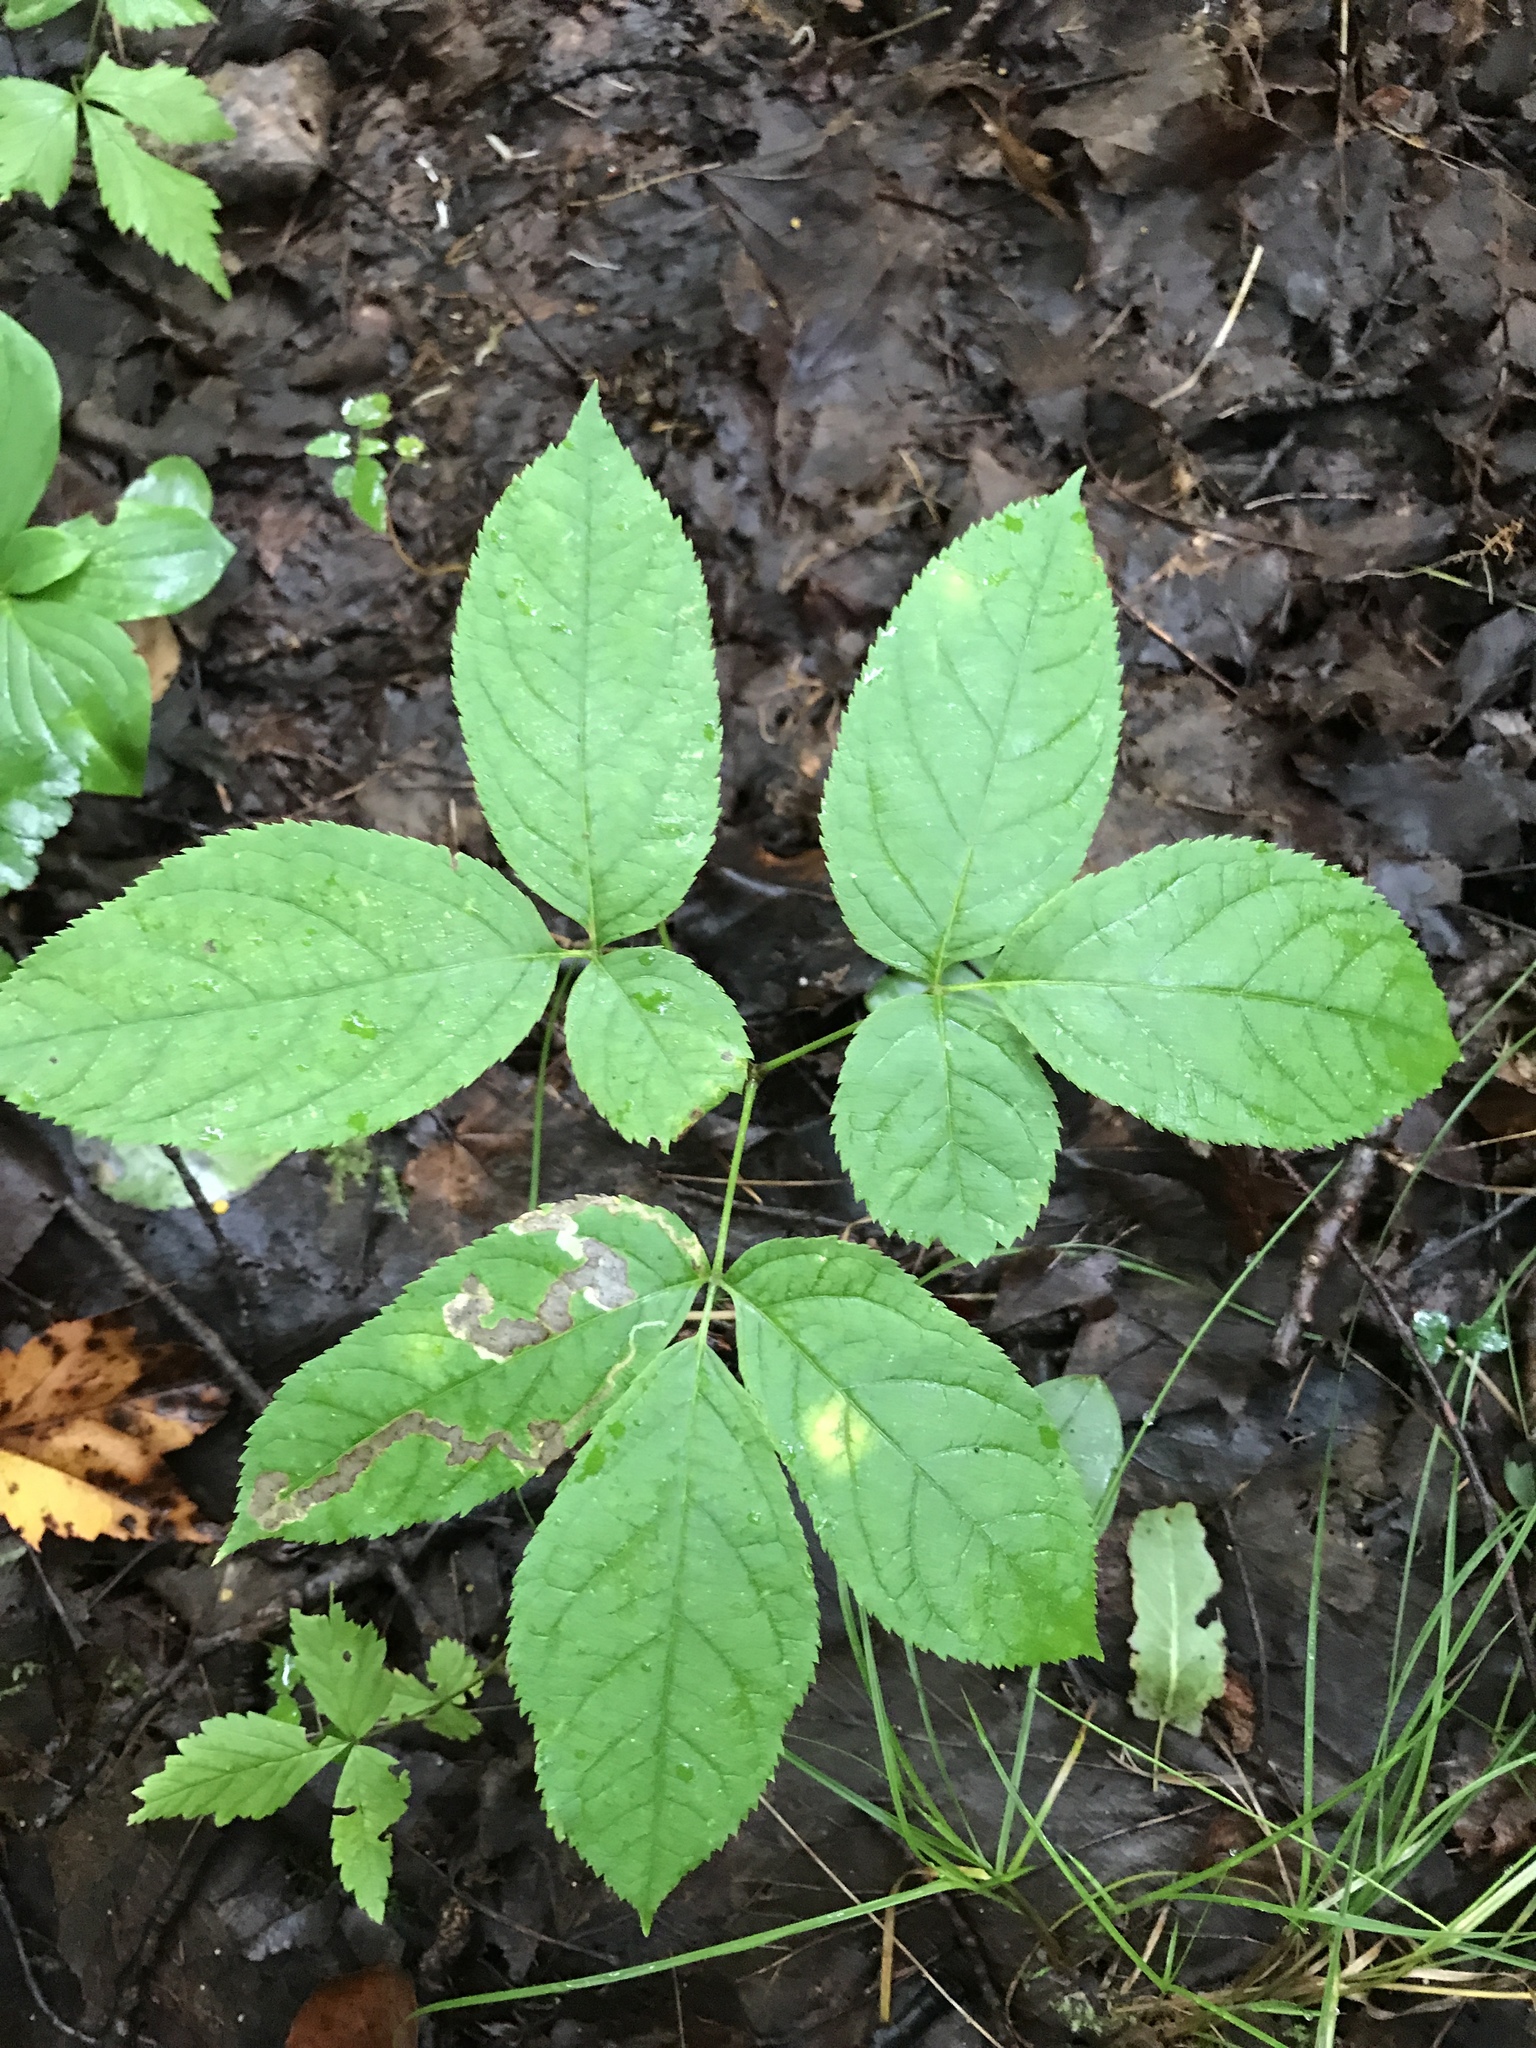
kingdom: Plantae
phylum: Tracheophyta
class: Magnoliopsida
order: Apiales
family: Araliaceae
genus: Aralia
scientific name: Aralia nudicaulis
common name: Wild sarsaparilla
